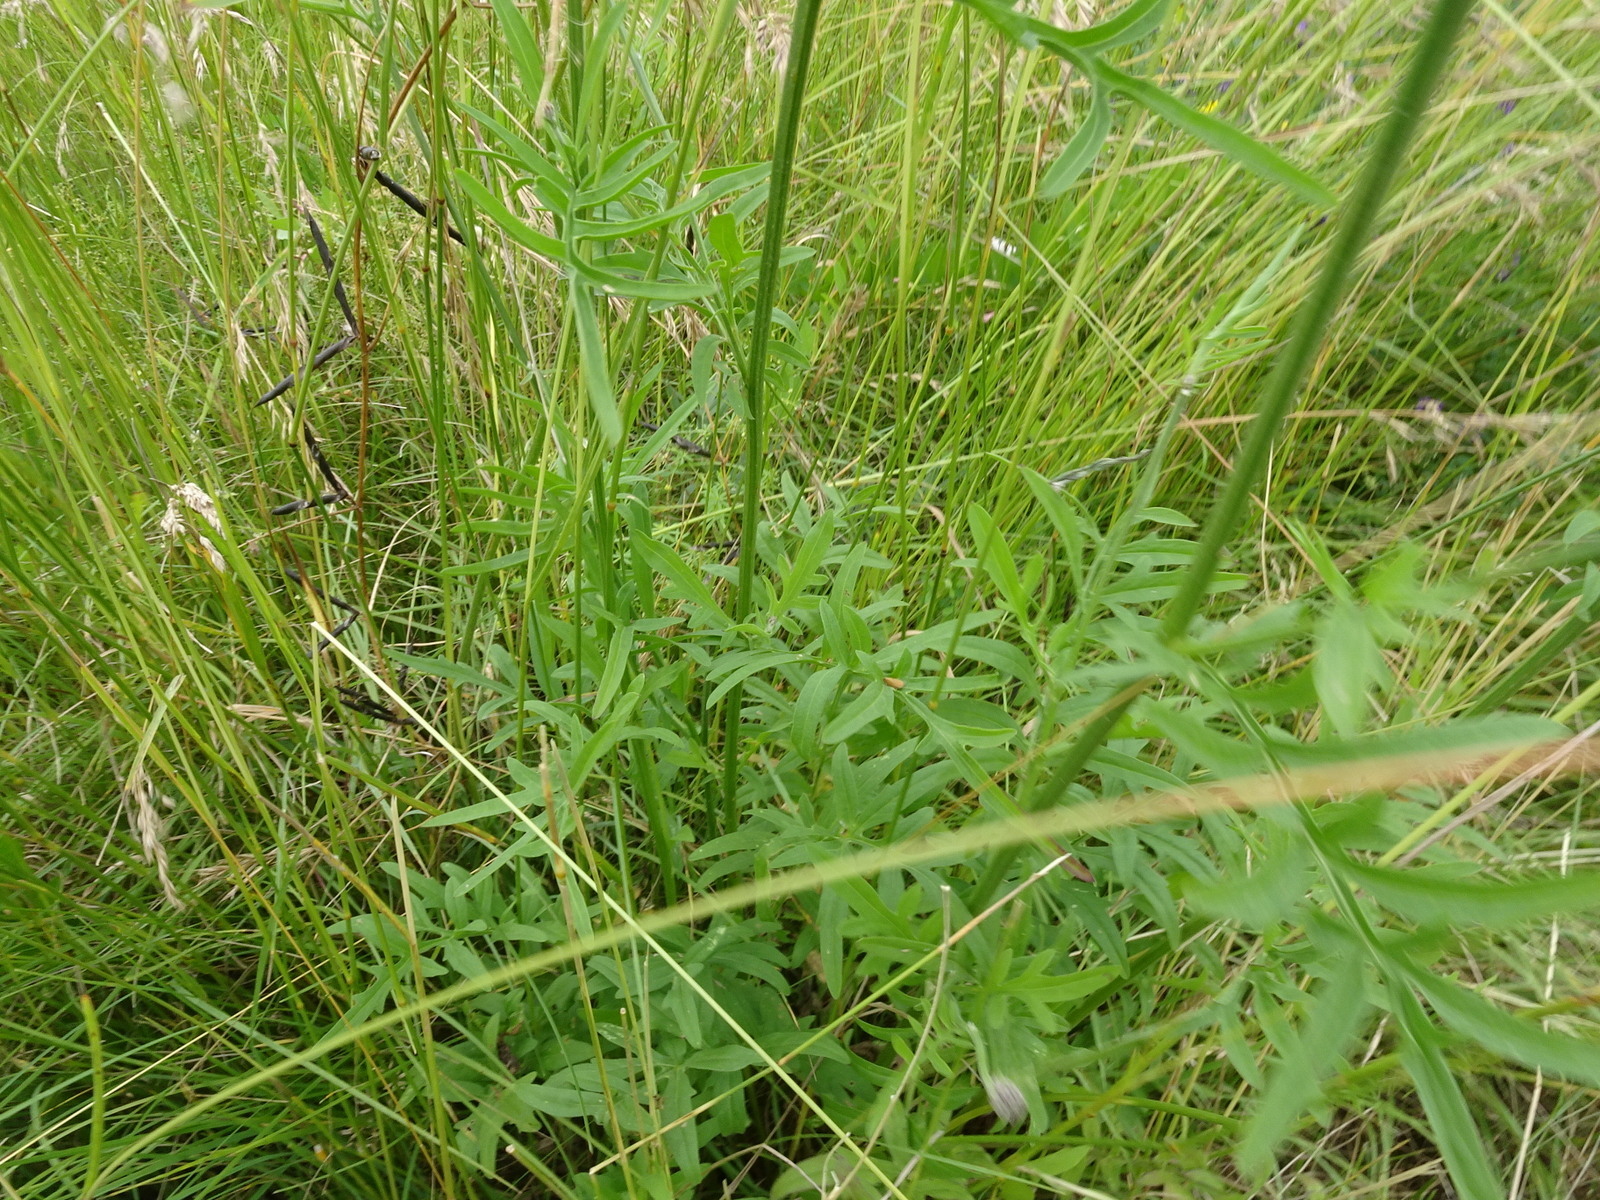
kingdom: Plantae
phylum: Tracheophyta
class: Magnoliopsida
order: Asterales
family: Asteraceae
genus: Centaurea
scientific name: Centaurea scabiosa
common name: Greater knapweed
